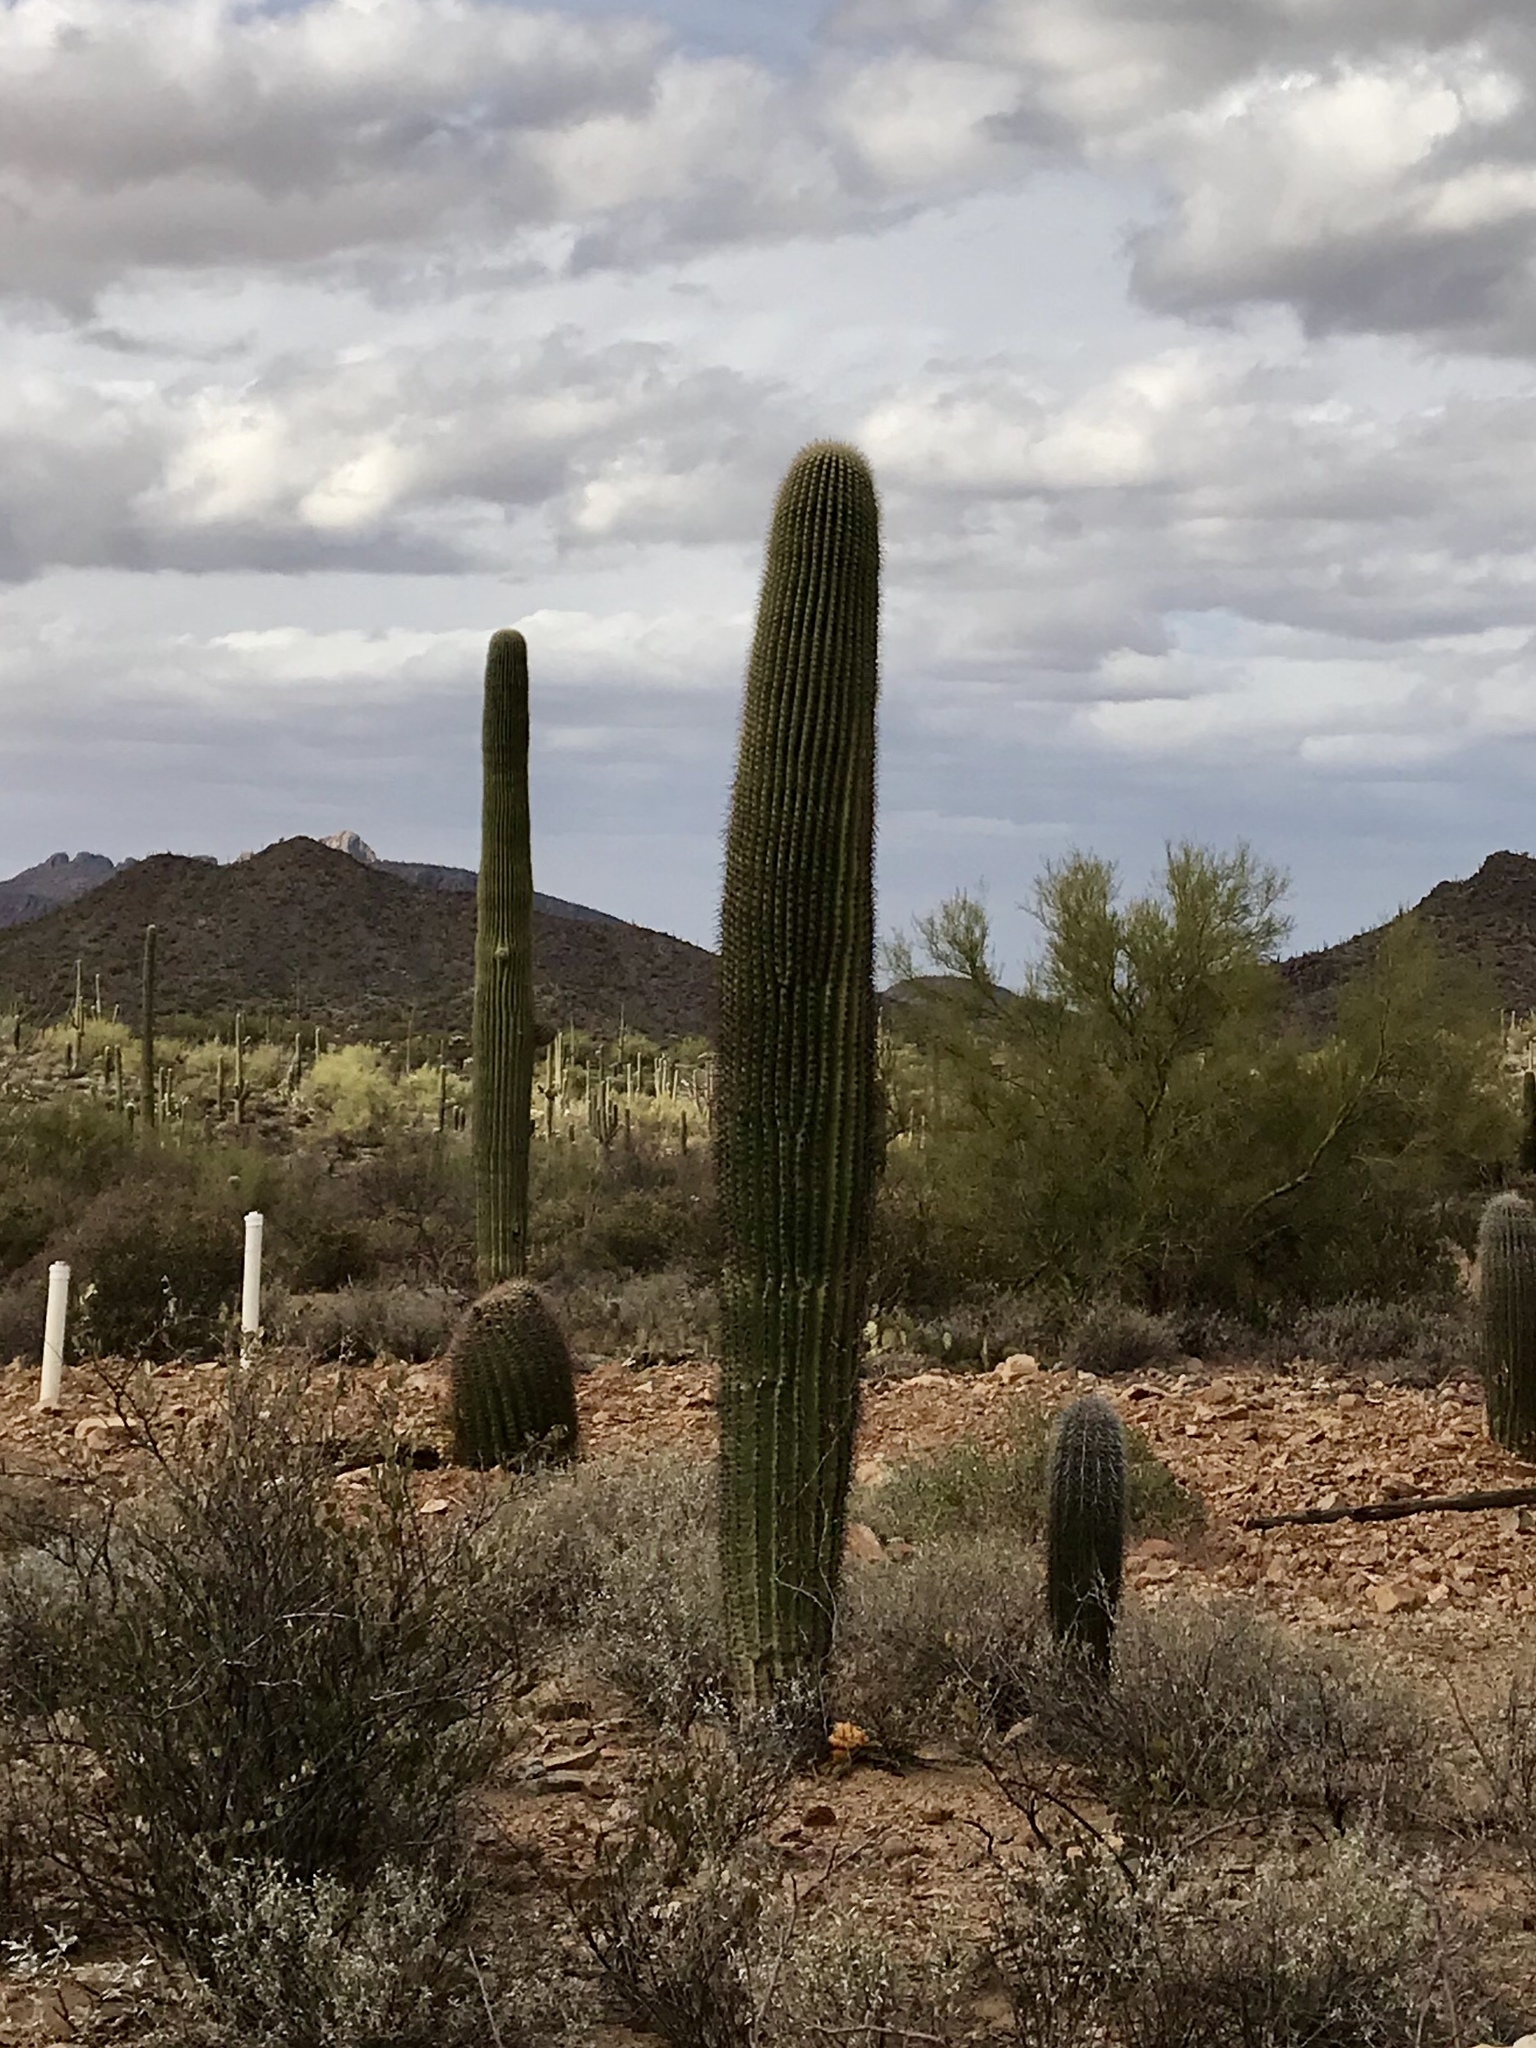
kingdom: Plantae
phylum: Tracheophyta
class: Magnoliopsida
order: Caryophyllales
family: Cactaceae
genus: Carnegiea
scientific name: Carnegiea gigantea
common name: Saguaro
